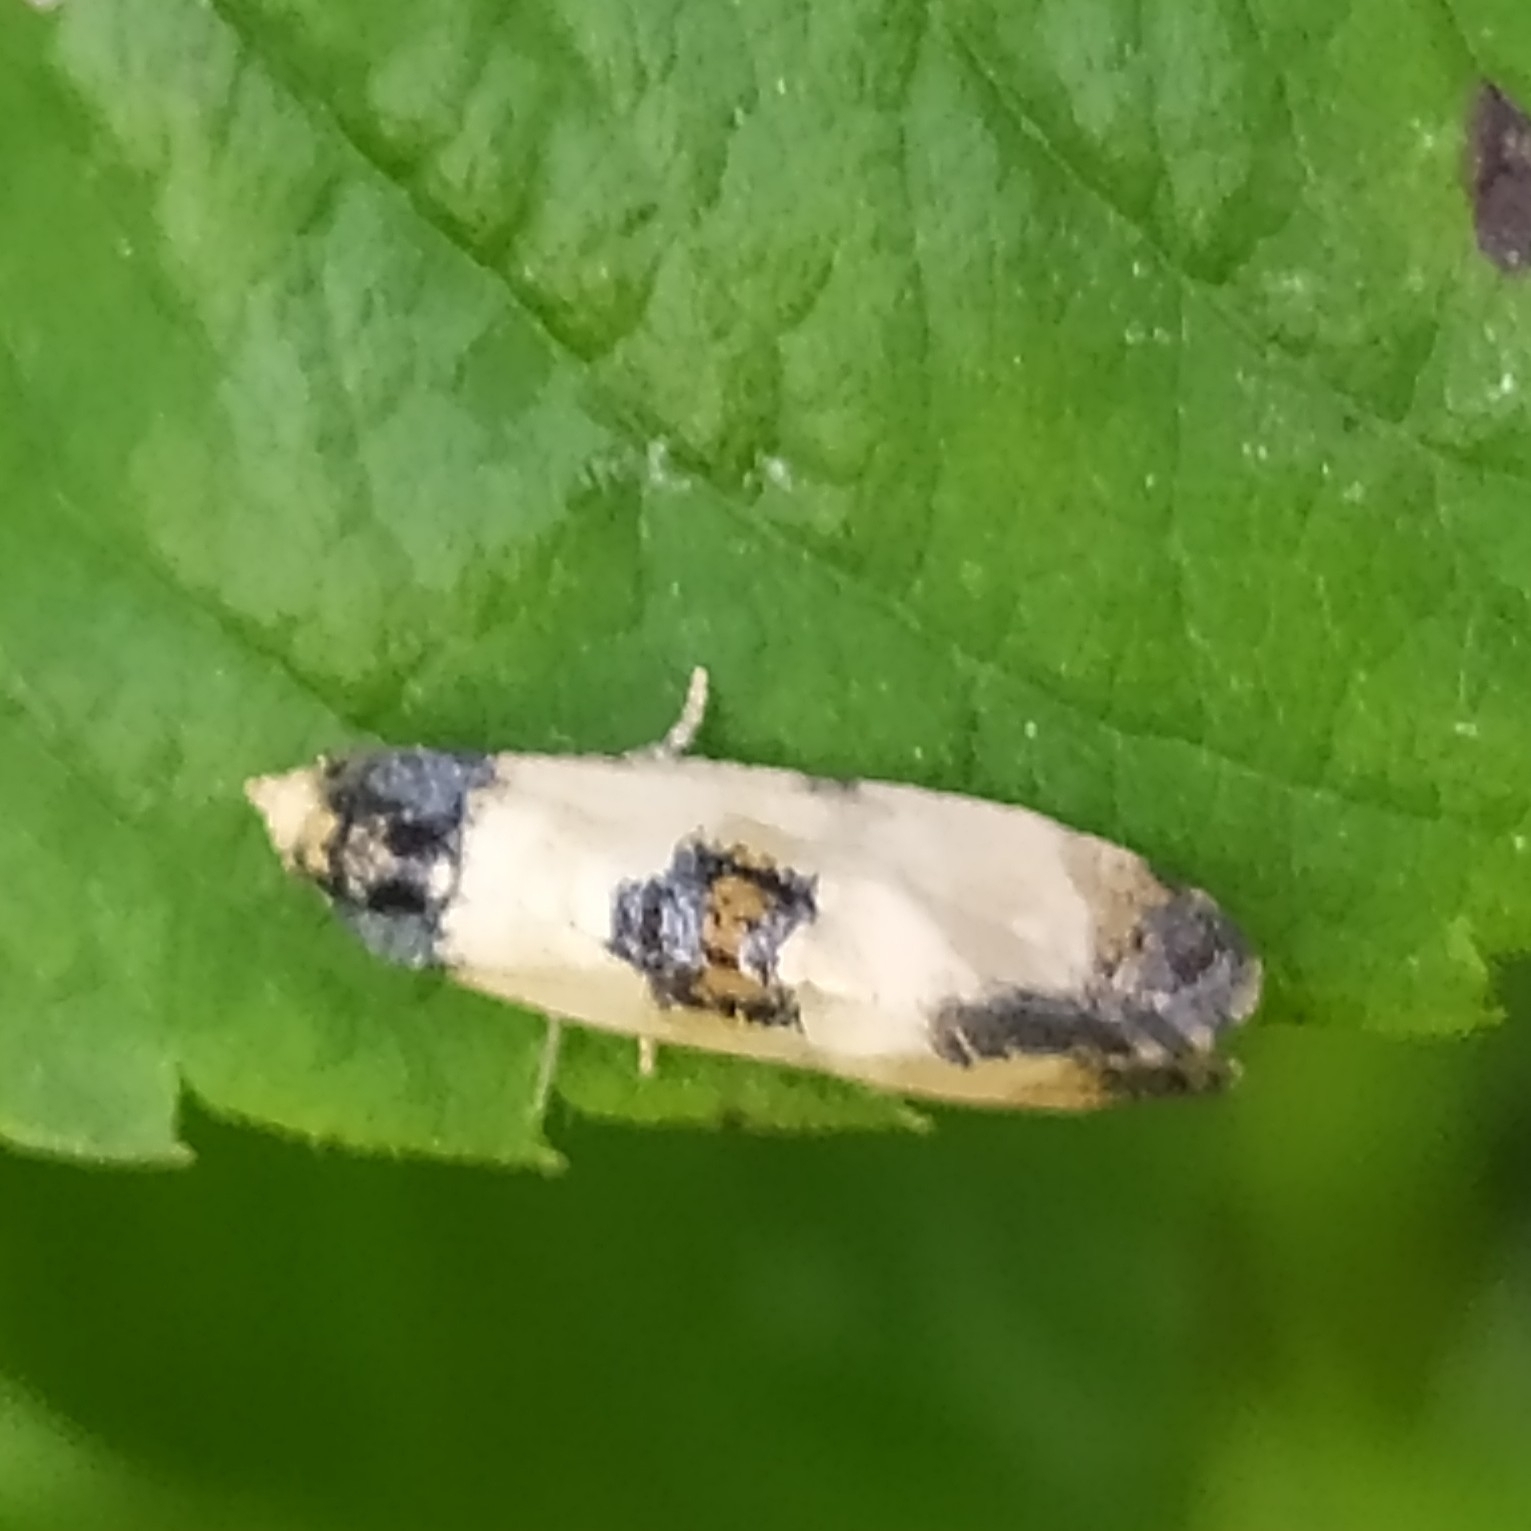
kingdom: Animalia
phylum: Arthropoda
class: Insecta
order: Lepidoptera
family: Tortricidae
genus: Cochylis
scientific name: Cochylis dubitana
